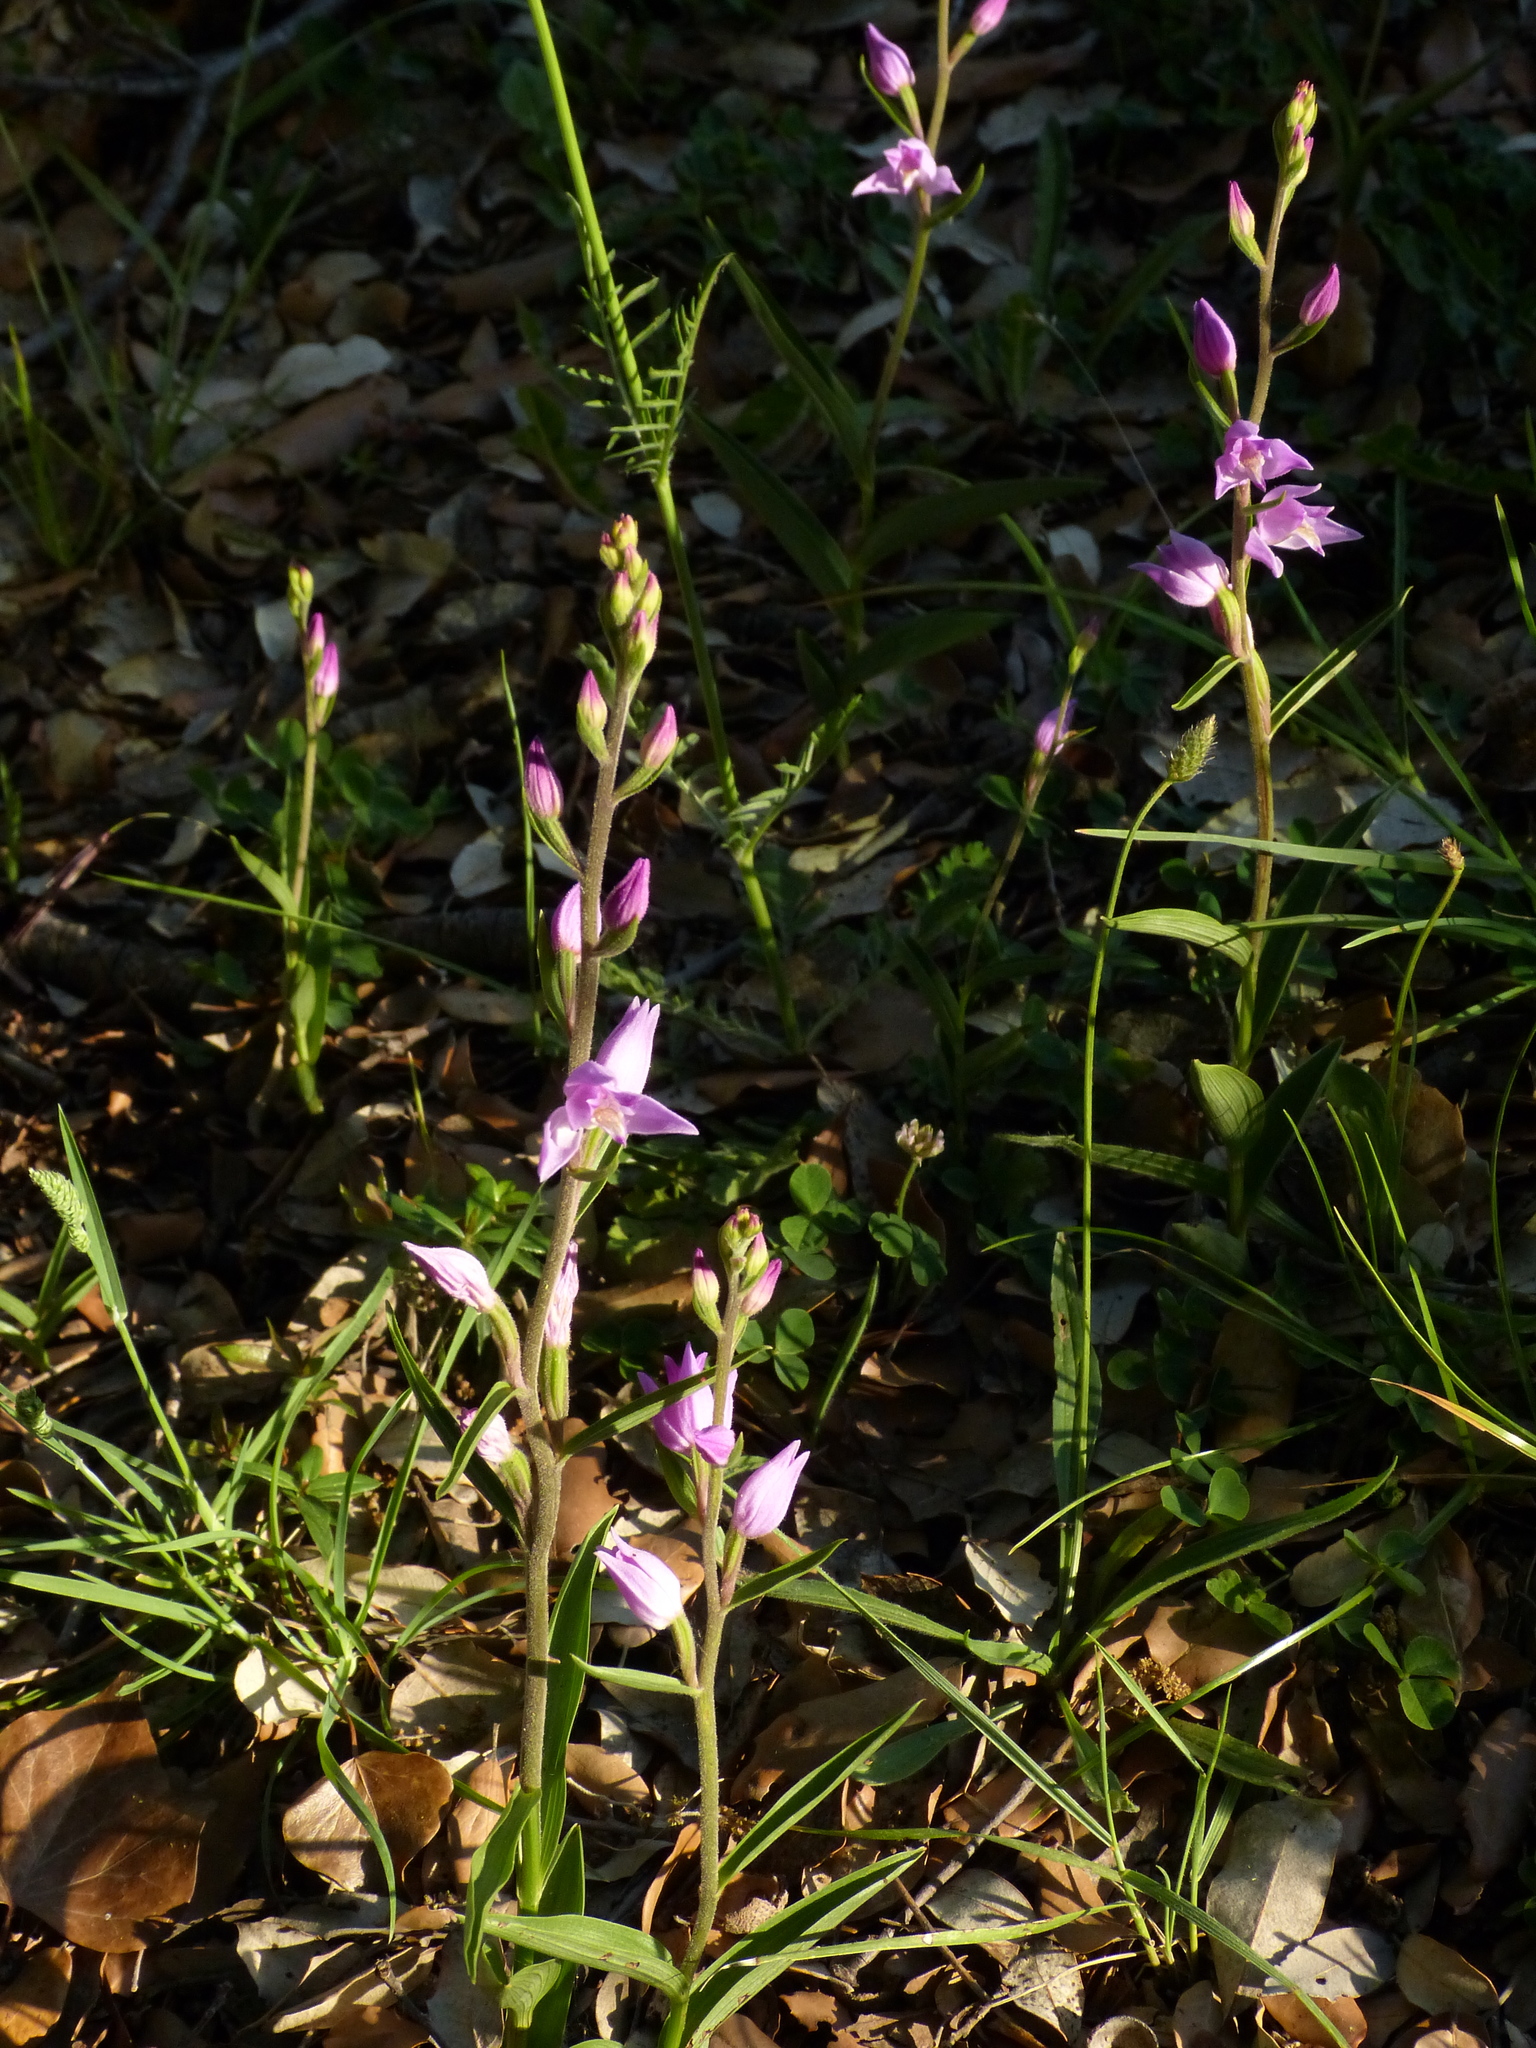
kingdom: Plantae
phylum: Tracheophyta
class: Liliopsida
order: Asparagales
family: Orchidaceae
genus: Cephalanthera
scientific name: Cephalanthera rubra
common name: Red helleborine
